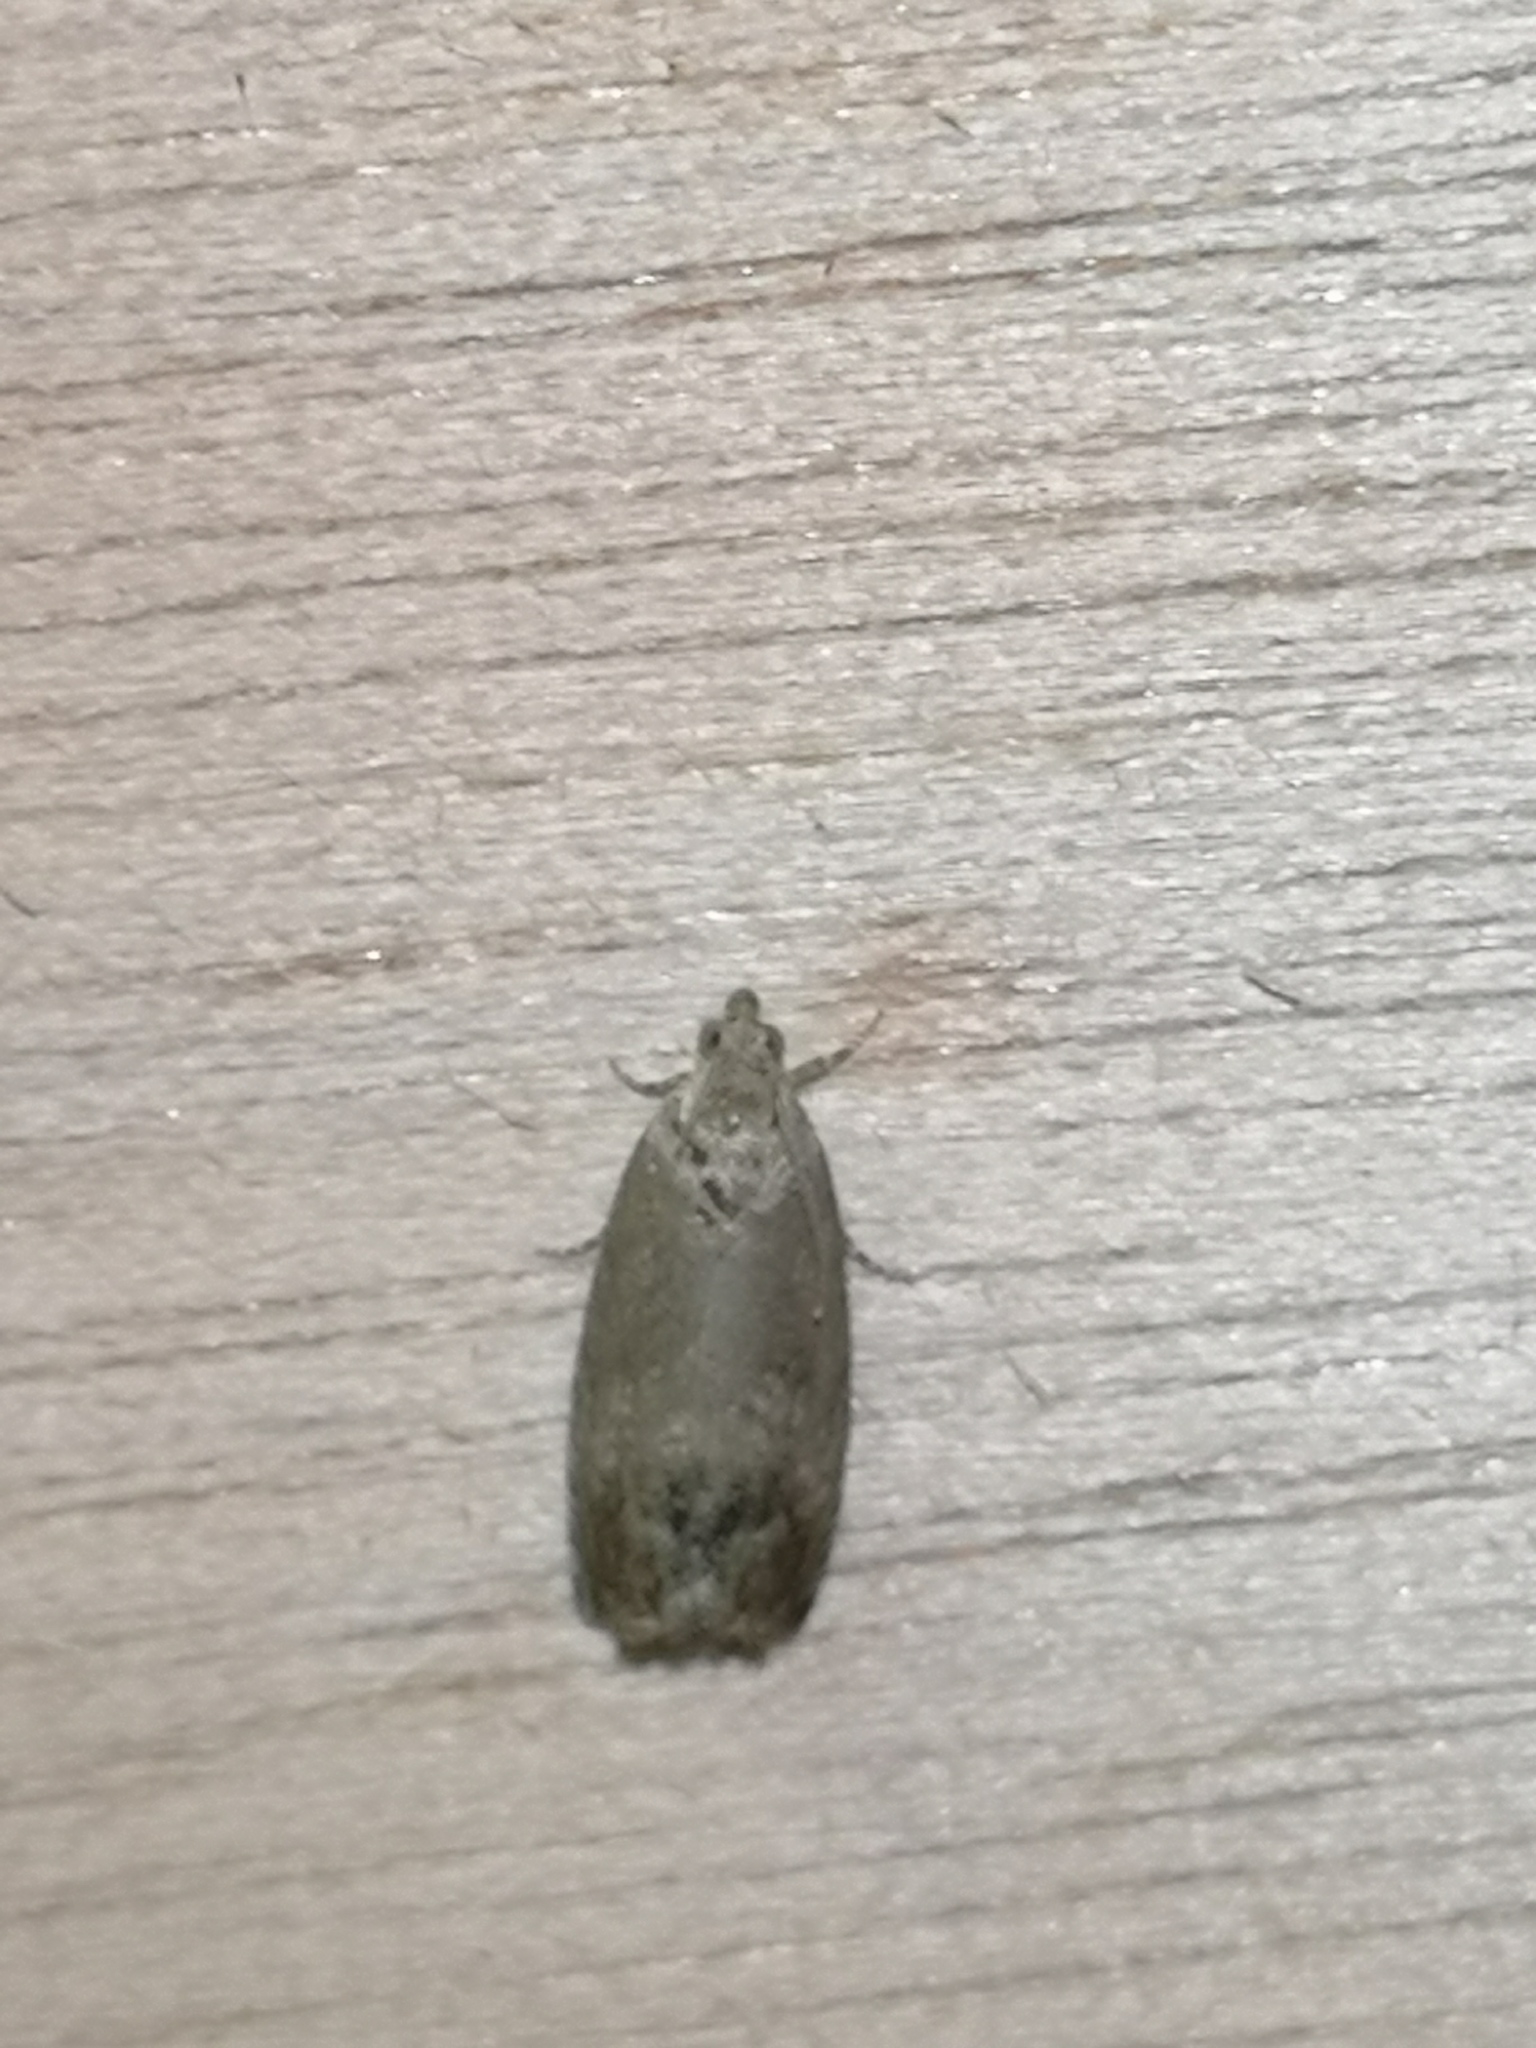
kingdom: Animalia
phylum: Arthropoda
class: Insecta
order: Lepidoptera
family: Tortricidae
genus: Cydia
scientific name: Cydia splendana
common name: De: kastanienwickler, eichenwickler es: oruga de la castaña fr: carpocapse des châtaignes it: cidia o tortrice tardiva delle castagne pt: bichado das castanhas gb: acorn moth, chestnut fruit tortrix
